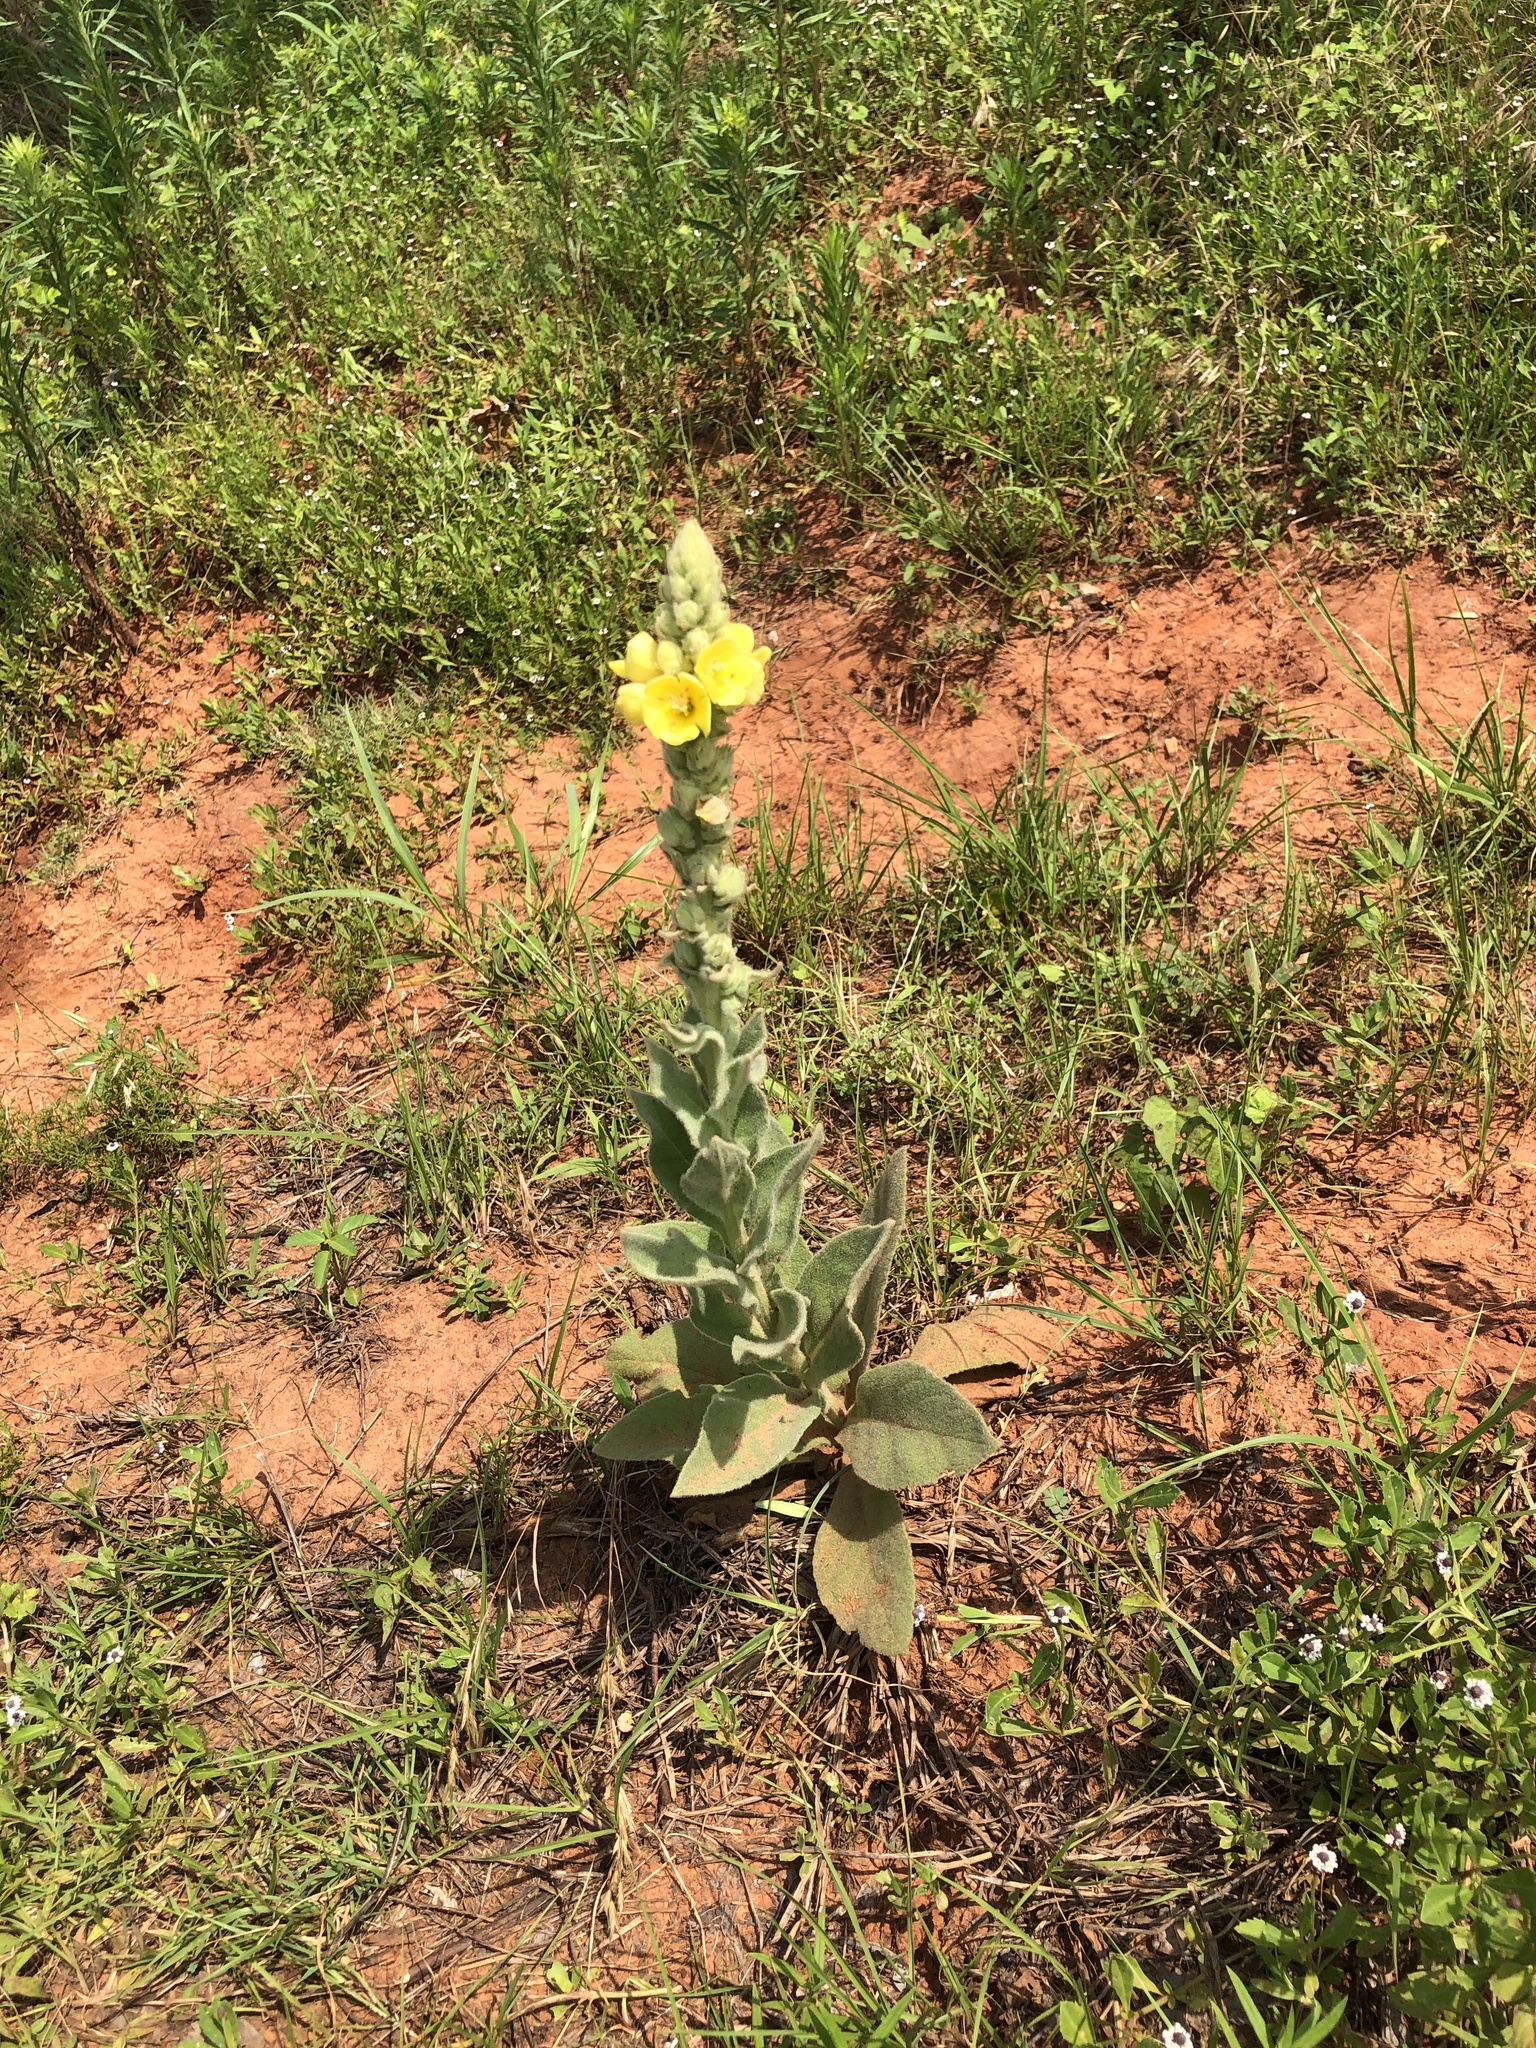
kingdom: Plantae
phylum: Tracheophyta
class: Magnoliopsida
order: Lamiales
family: Scrophulariaceae
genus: Verbascum
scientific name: Verbascum thapsus
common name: Common mullein
